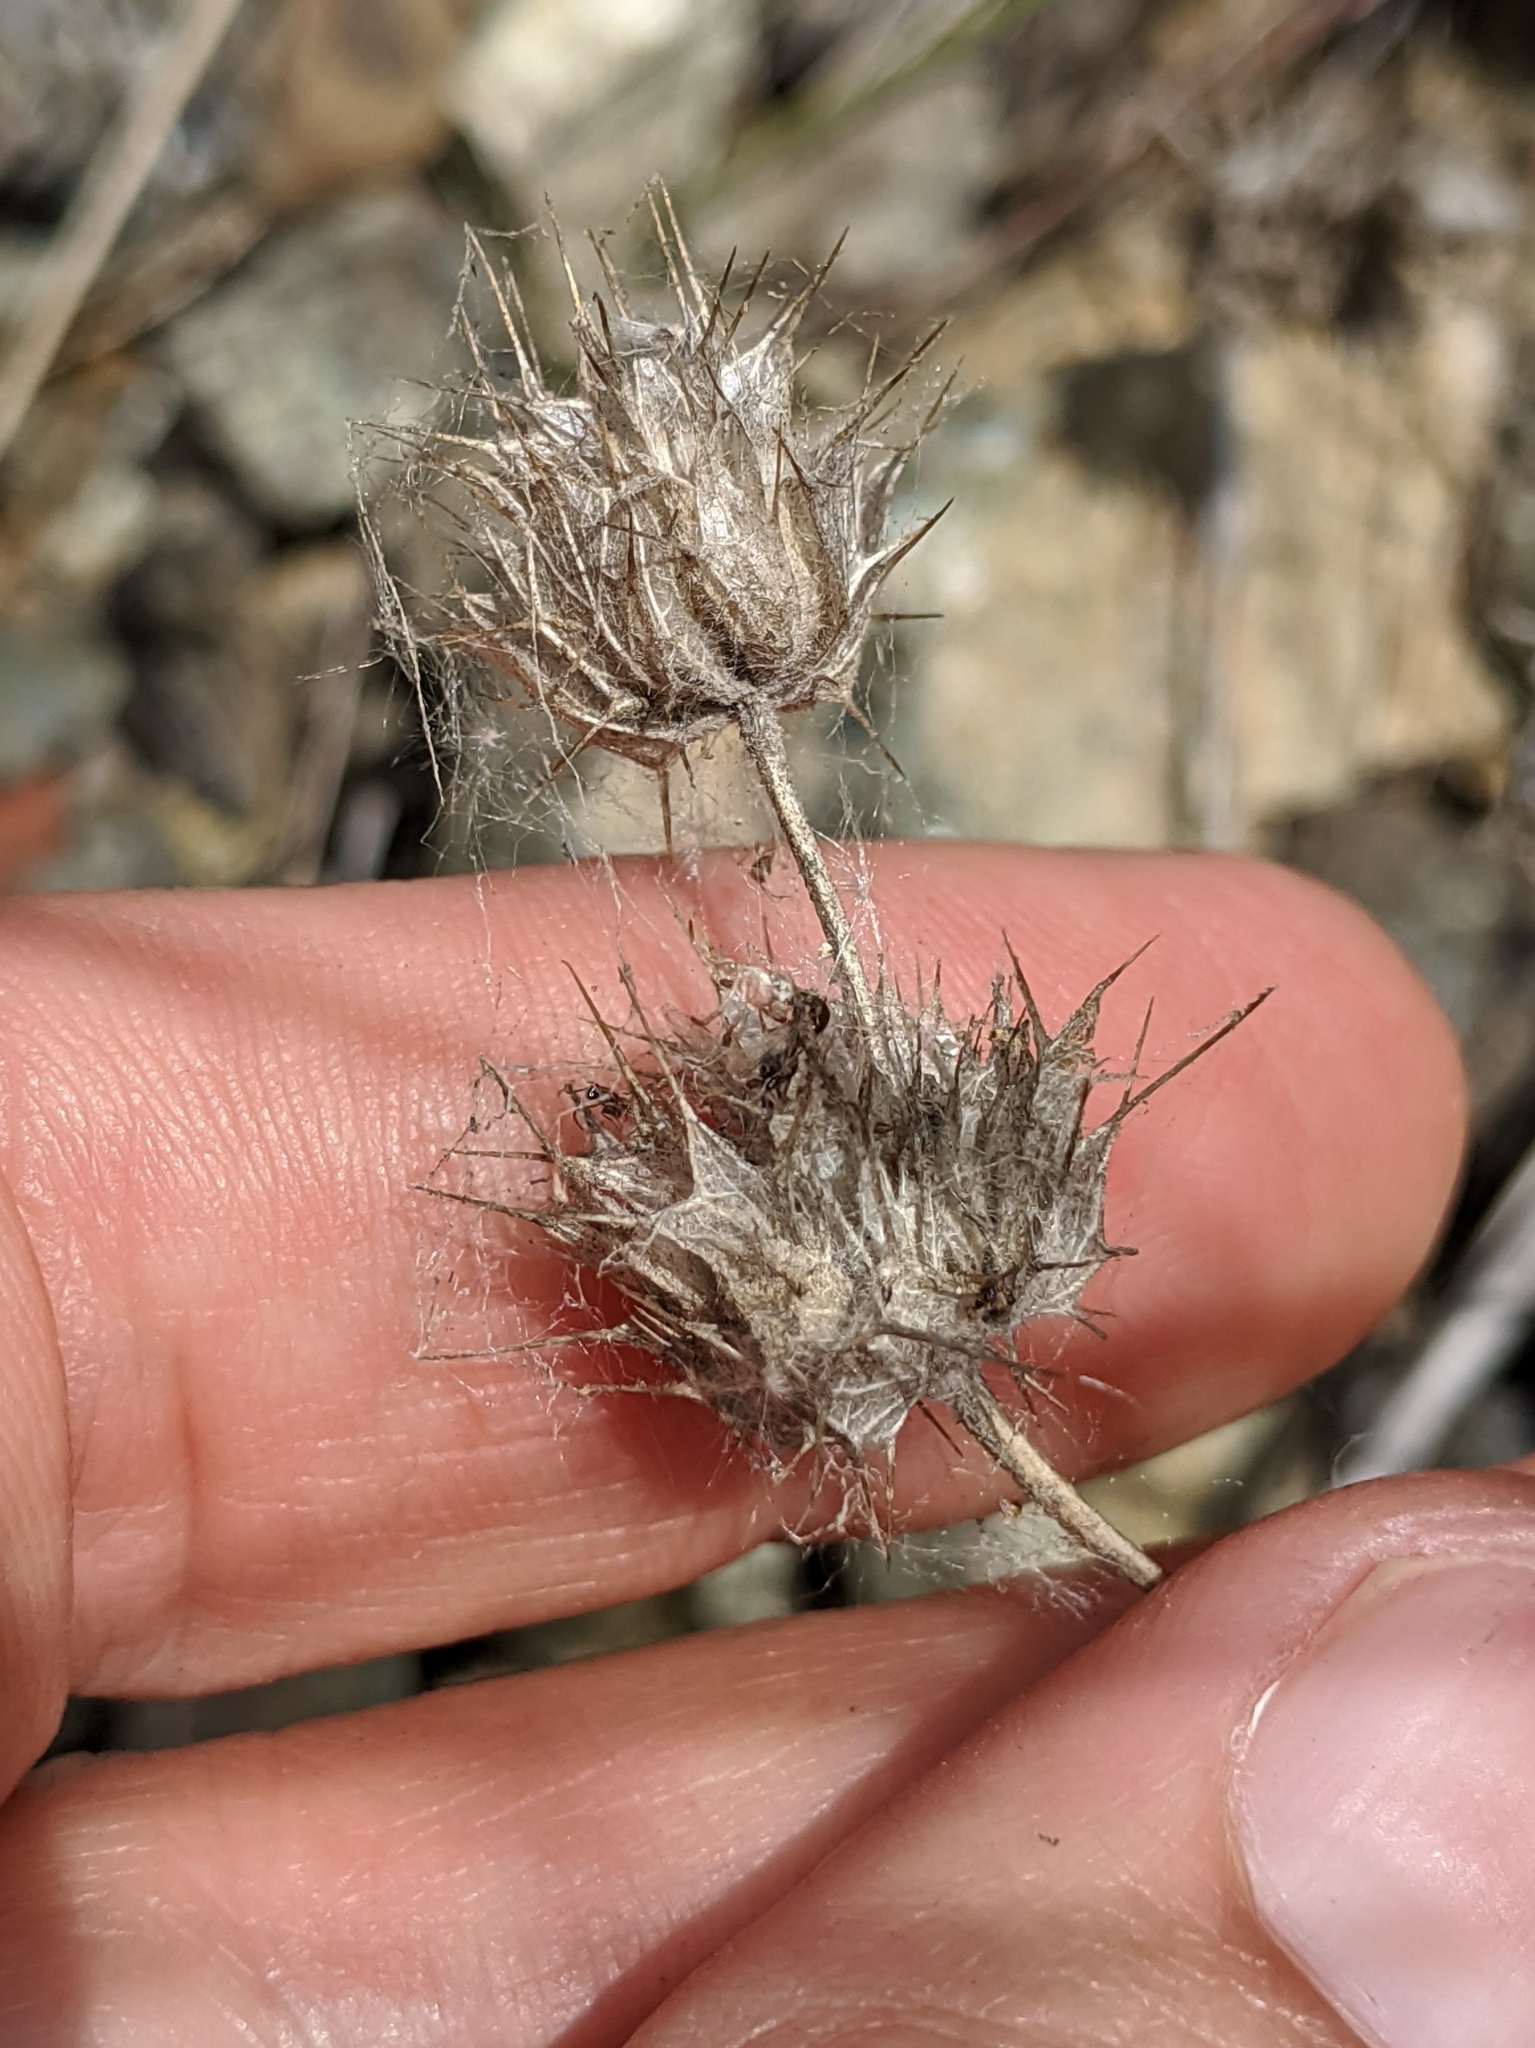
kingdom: Plantae
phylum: Tracheophyta
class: Magnoliopsida
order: Lamiales
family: Lamiaceae
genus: Acanthomintha
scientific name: Acanthomintha lanceolata
